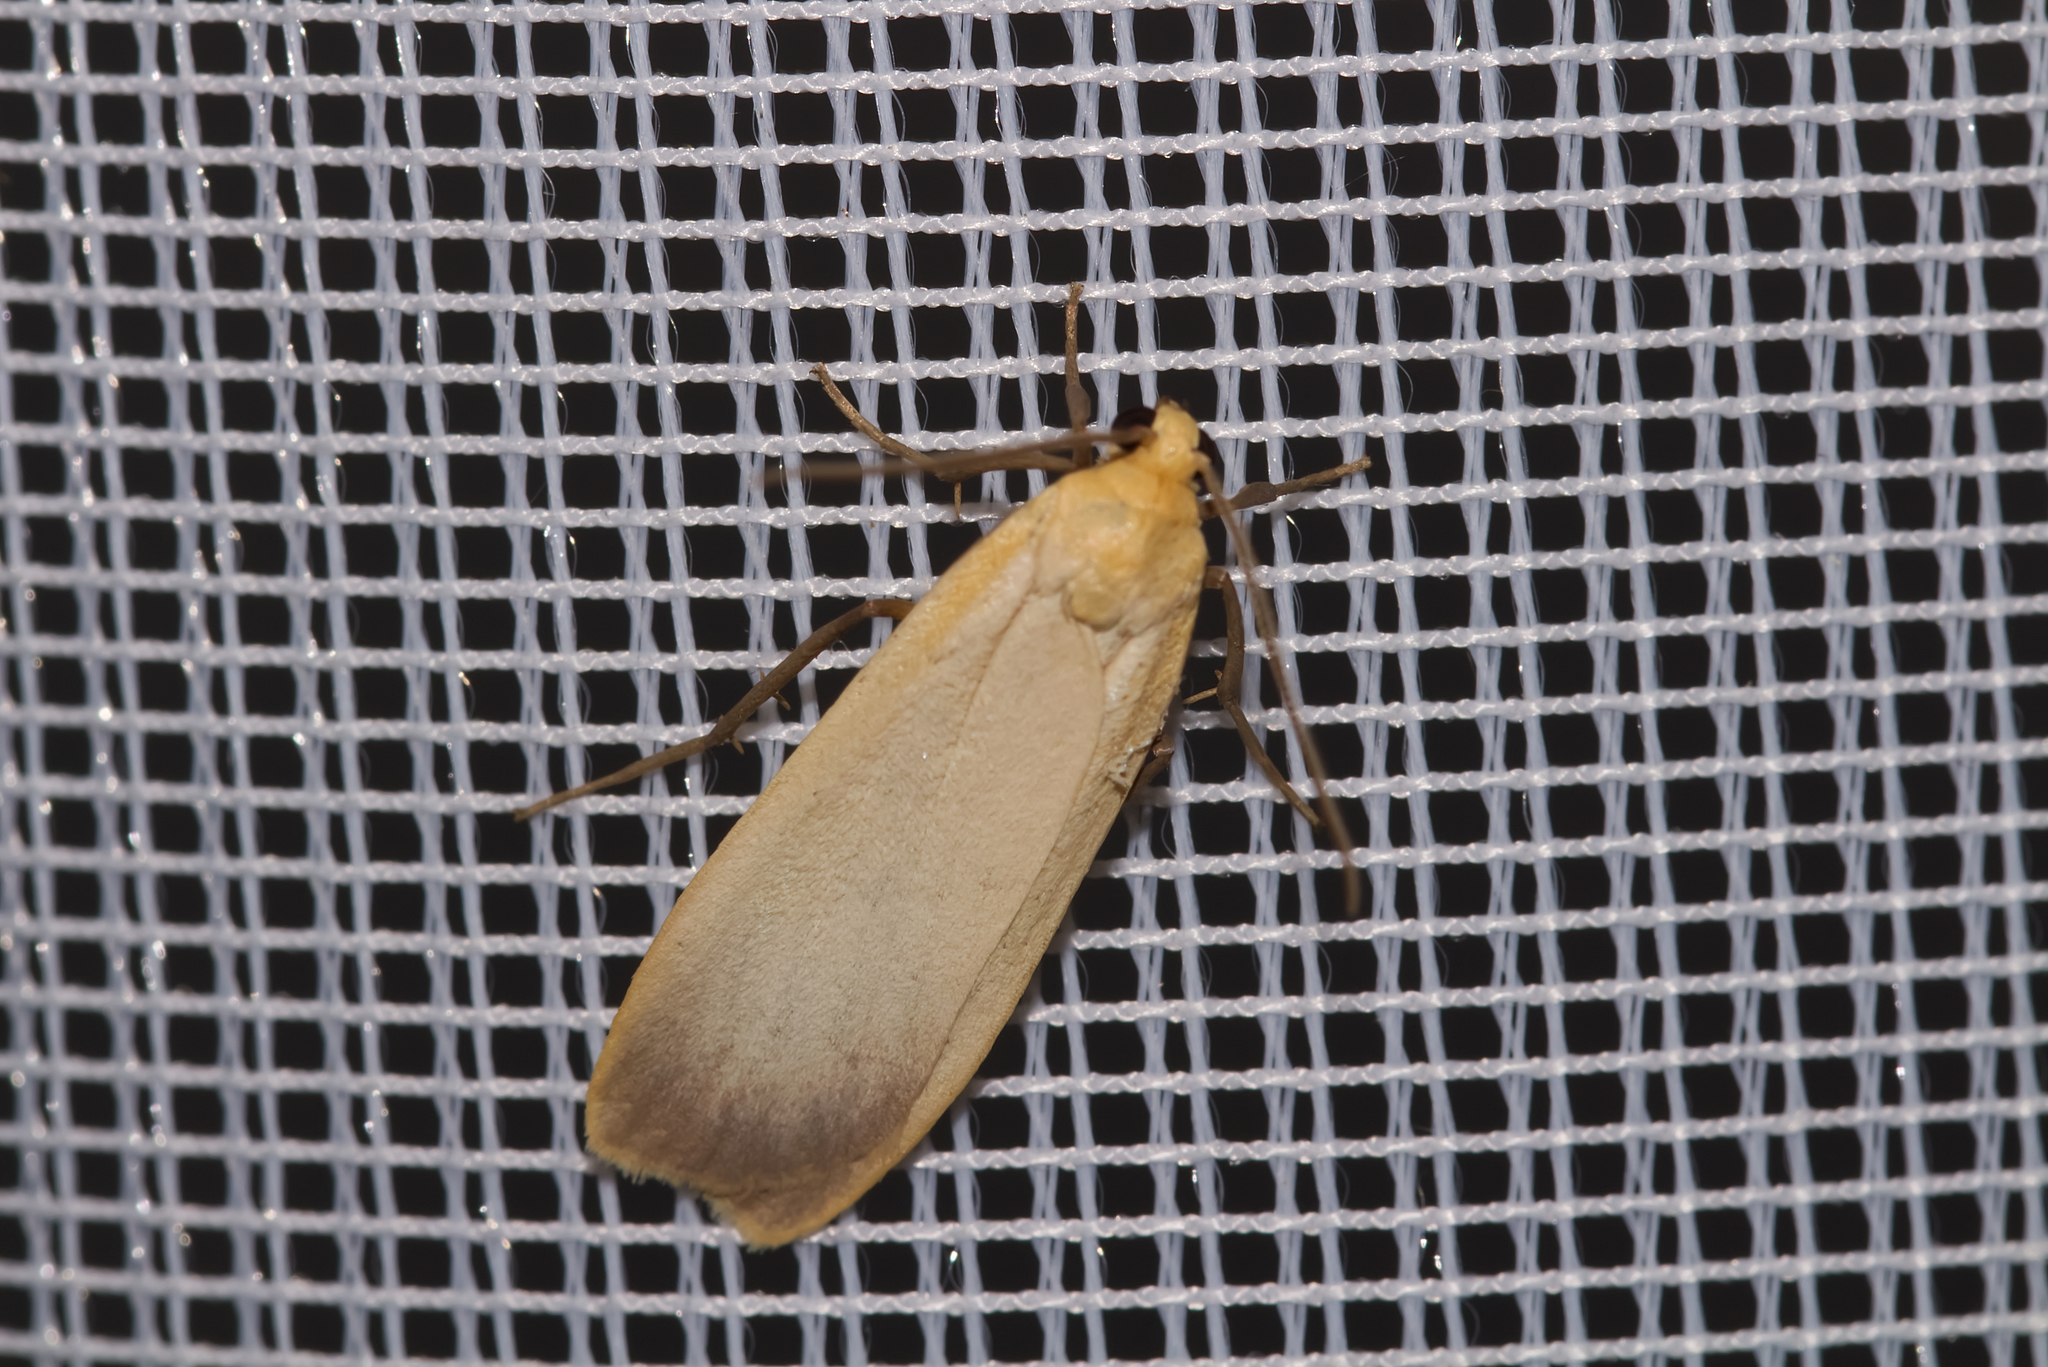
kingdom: Animalia
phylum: Arthropoda
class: Insecta
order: Lepidoptera
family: Erebidae
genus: Katha
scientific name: Katha depressa
